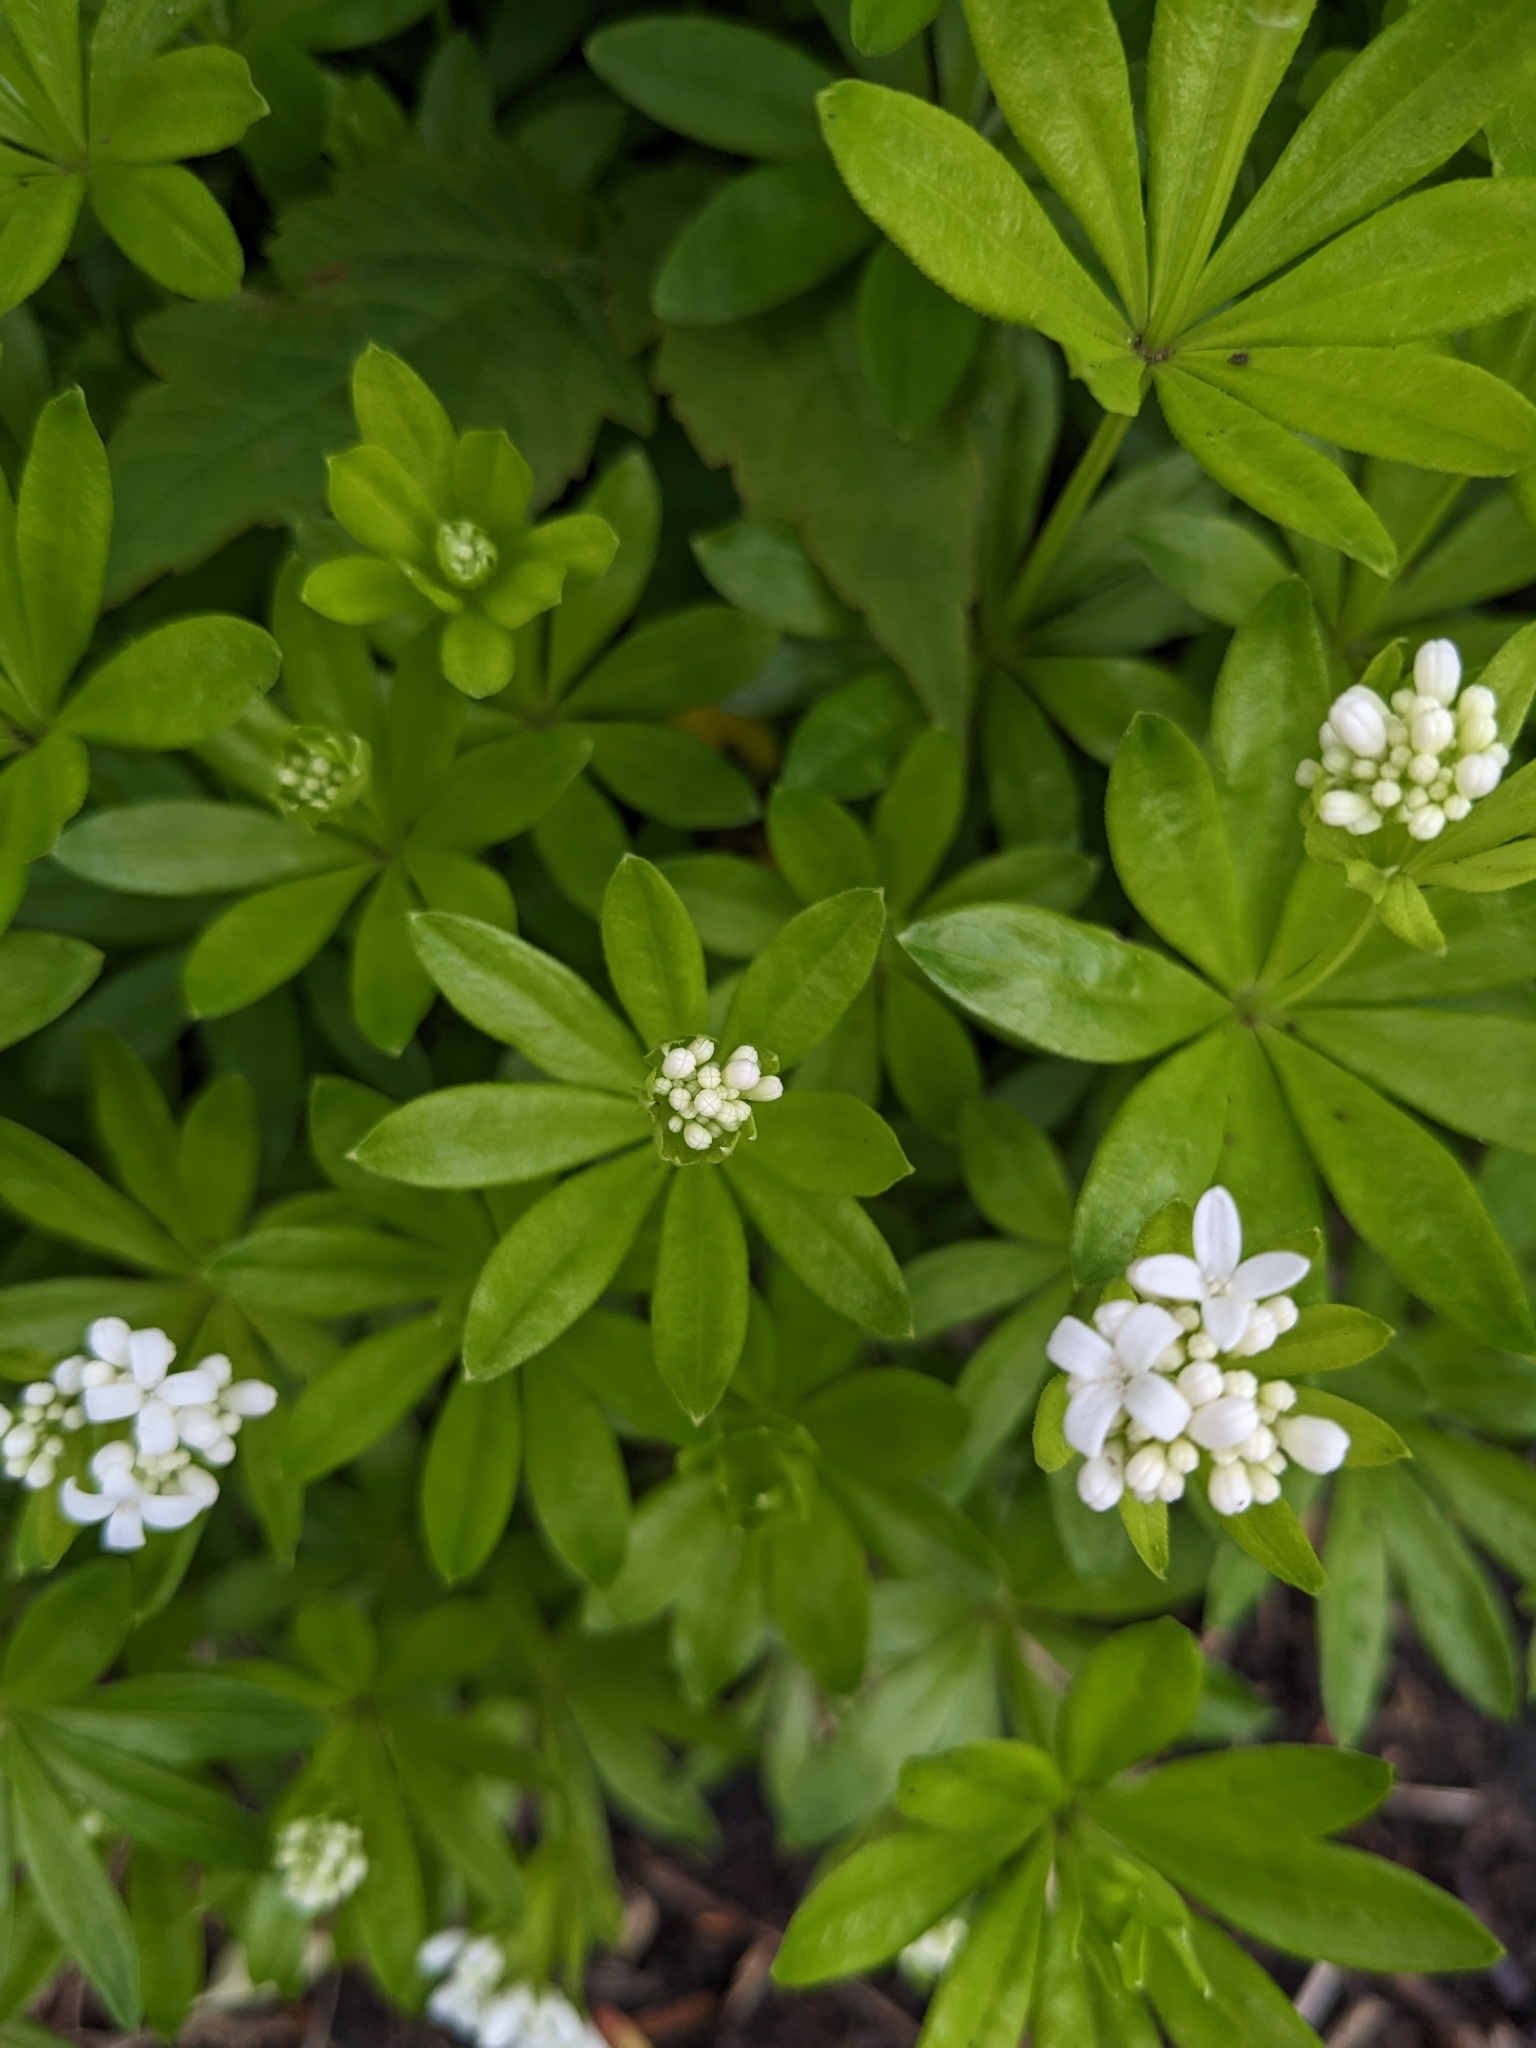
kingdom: Plantae
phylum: Tracheophyta
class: Magnoliopsida
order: Gentianales
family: Rubiaceae
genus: Galium
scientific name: Galium odoratum
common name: Sweet woodruff
